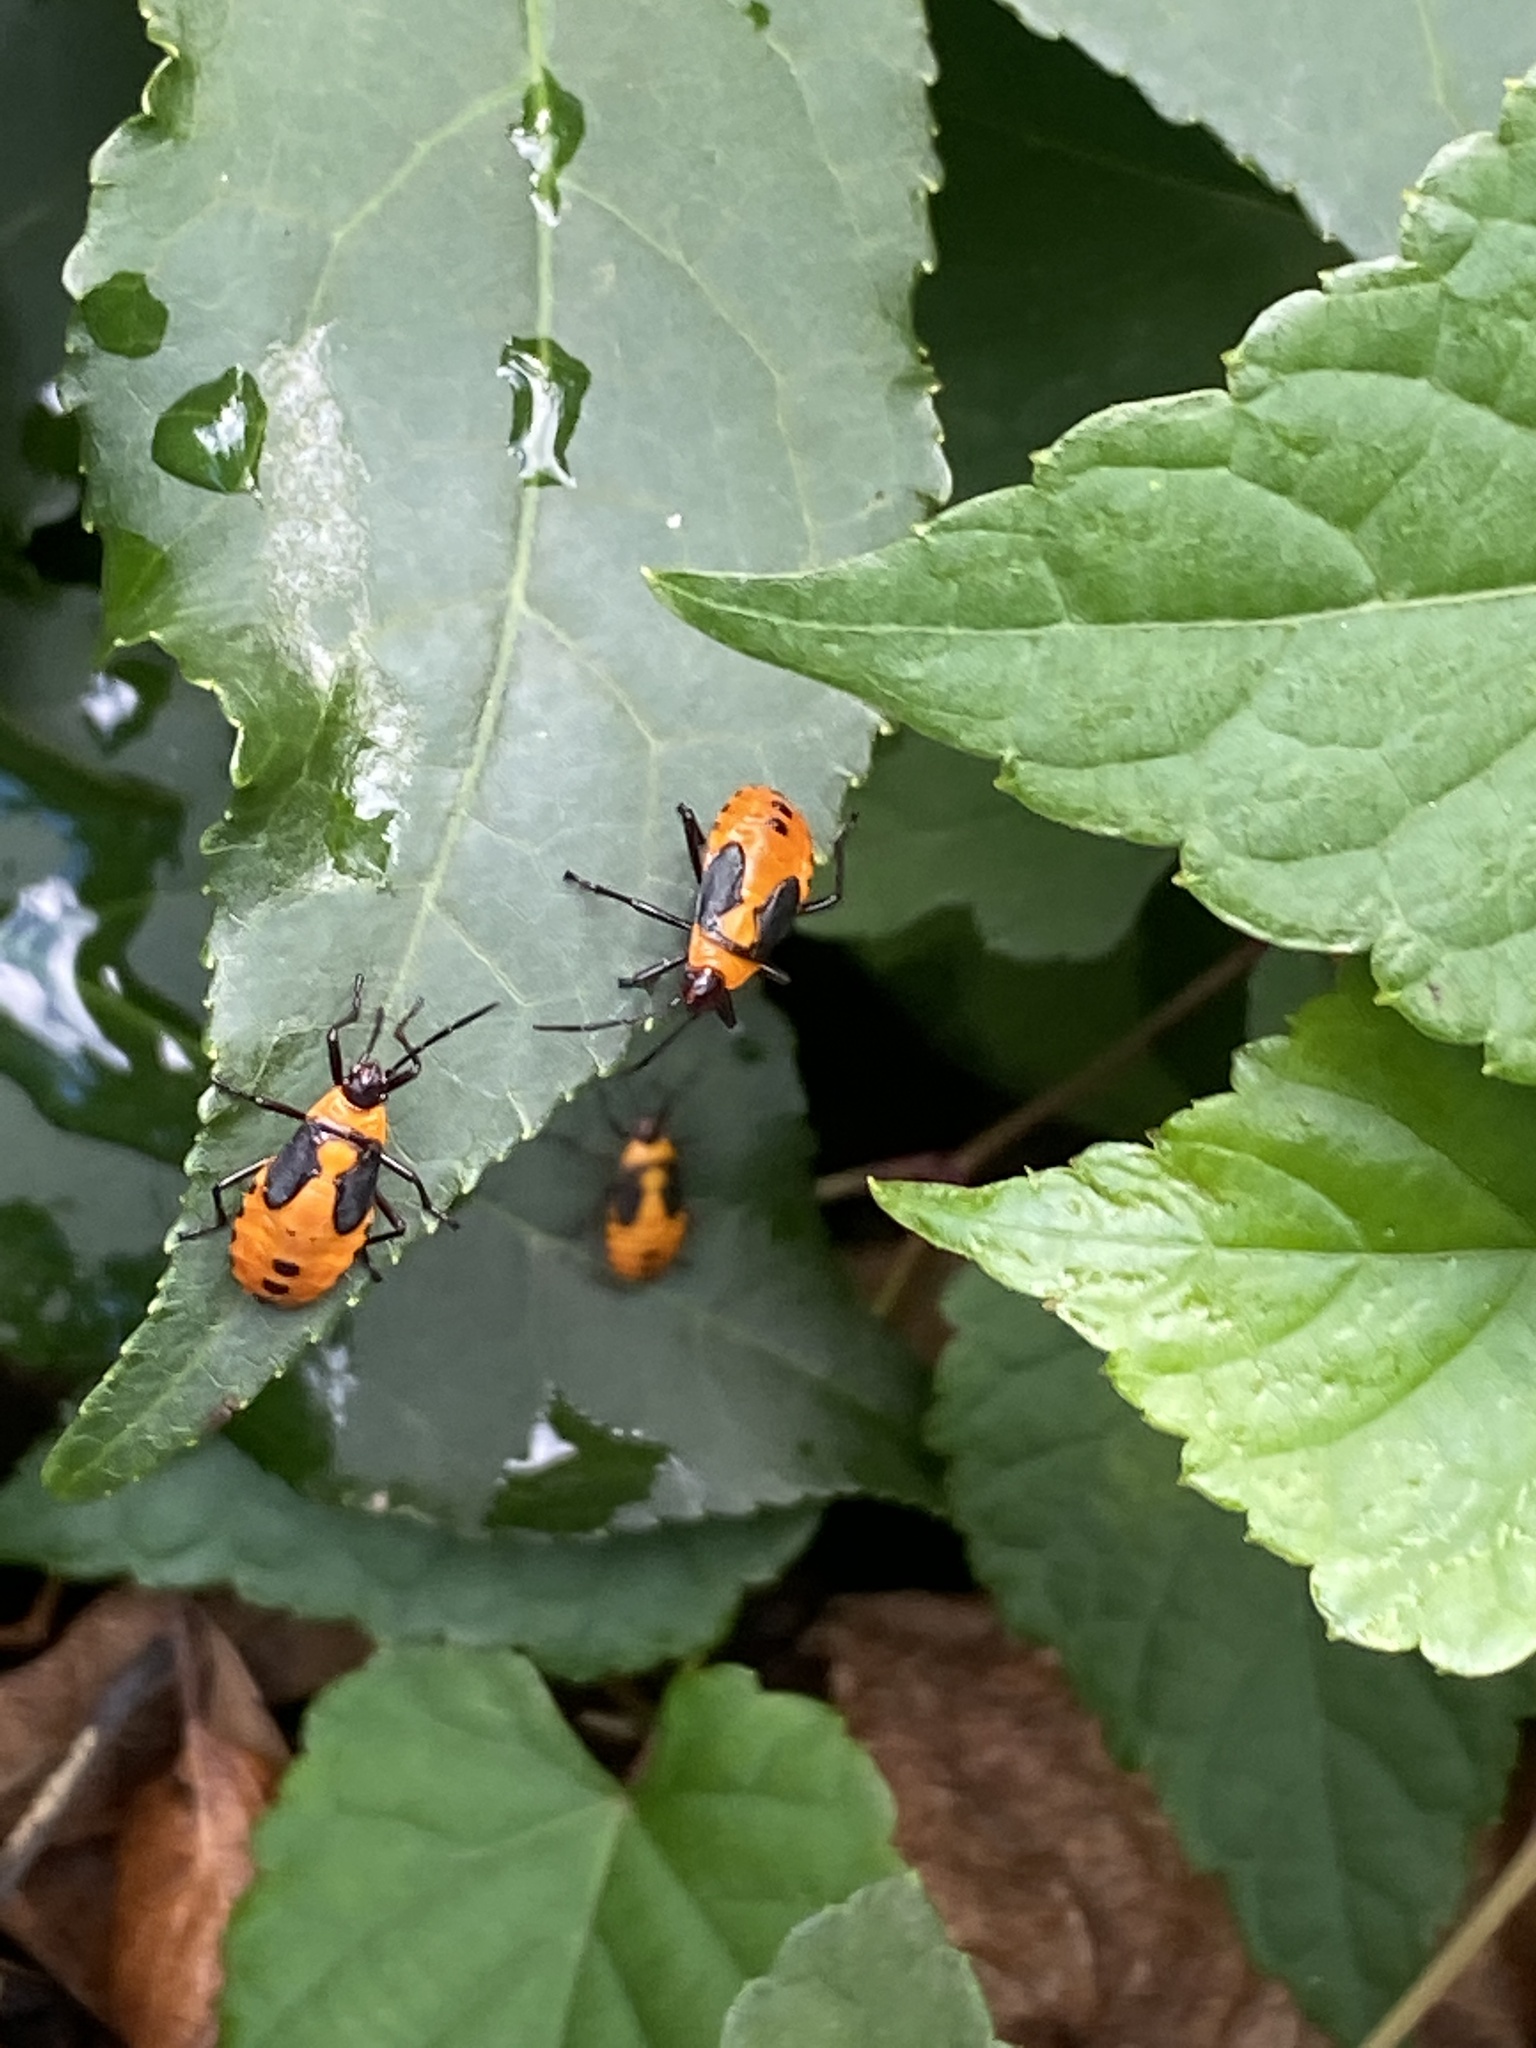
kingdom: Animalia
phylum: Arthropoda
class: Insecta
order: Hemiptera
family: Lygaeidae
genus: Oncopeltus
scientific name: Oncopeltus fasciatus
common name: Large milkweed bug
